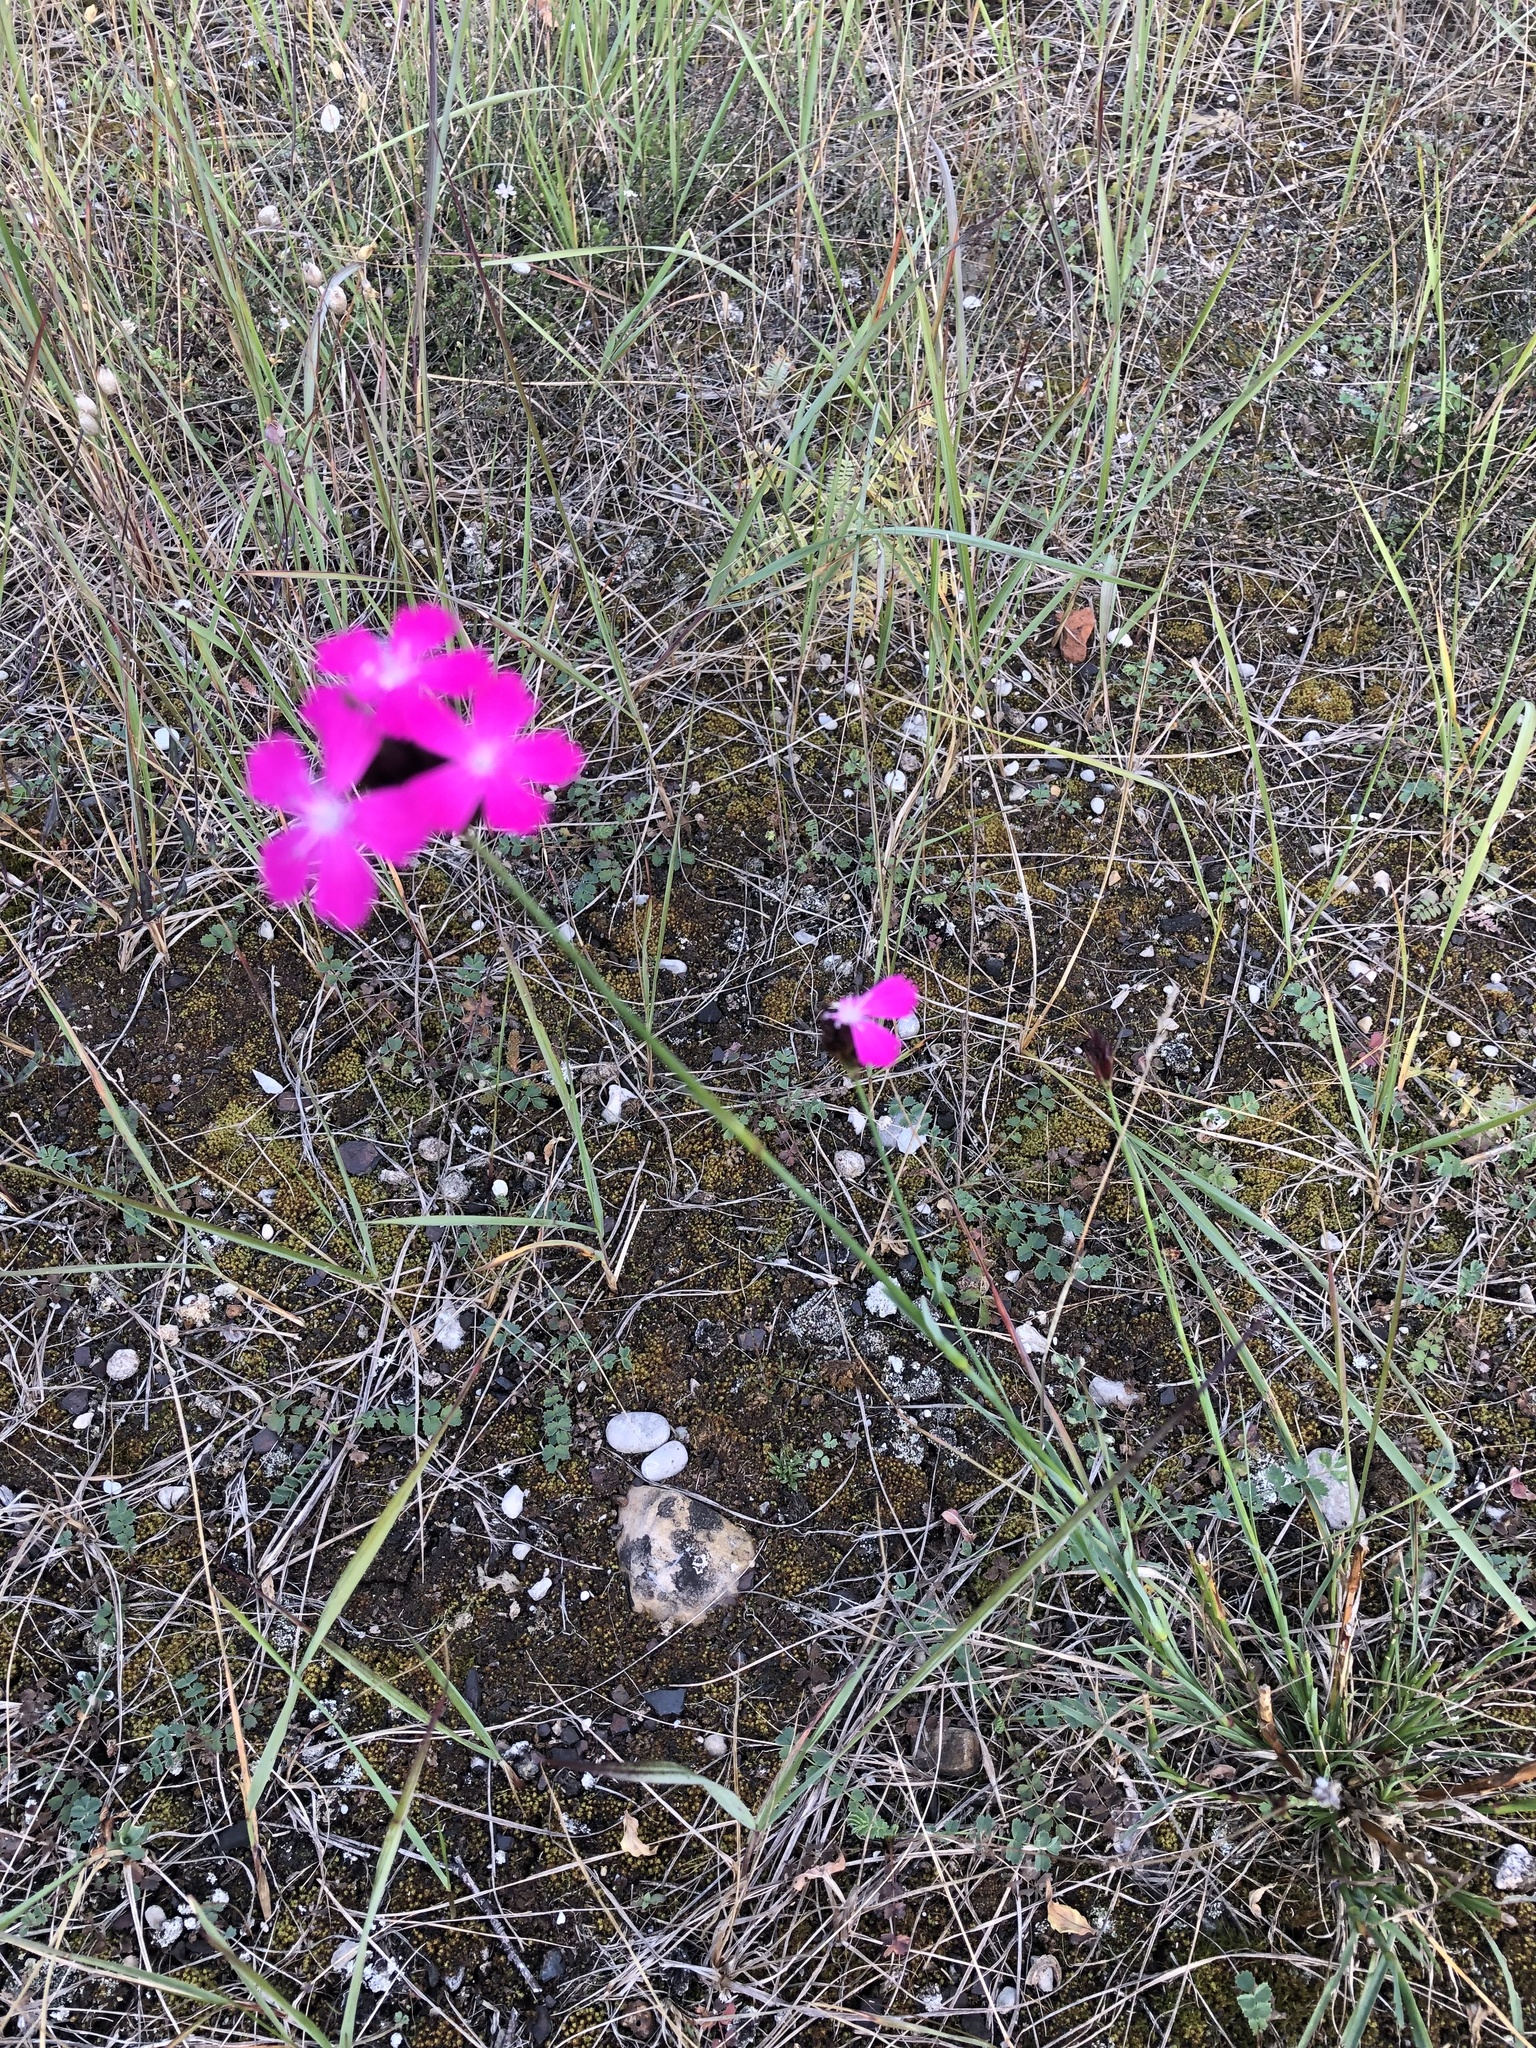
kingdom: Plantae
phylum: Tracheophyta
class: Magnoliopsida
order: Caryophyllales
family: Caryophyllaceae
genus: Dianthus
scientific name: Dianthus carthusianorum
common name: Carthusian pink
